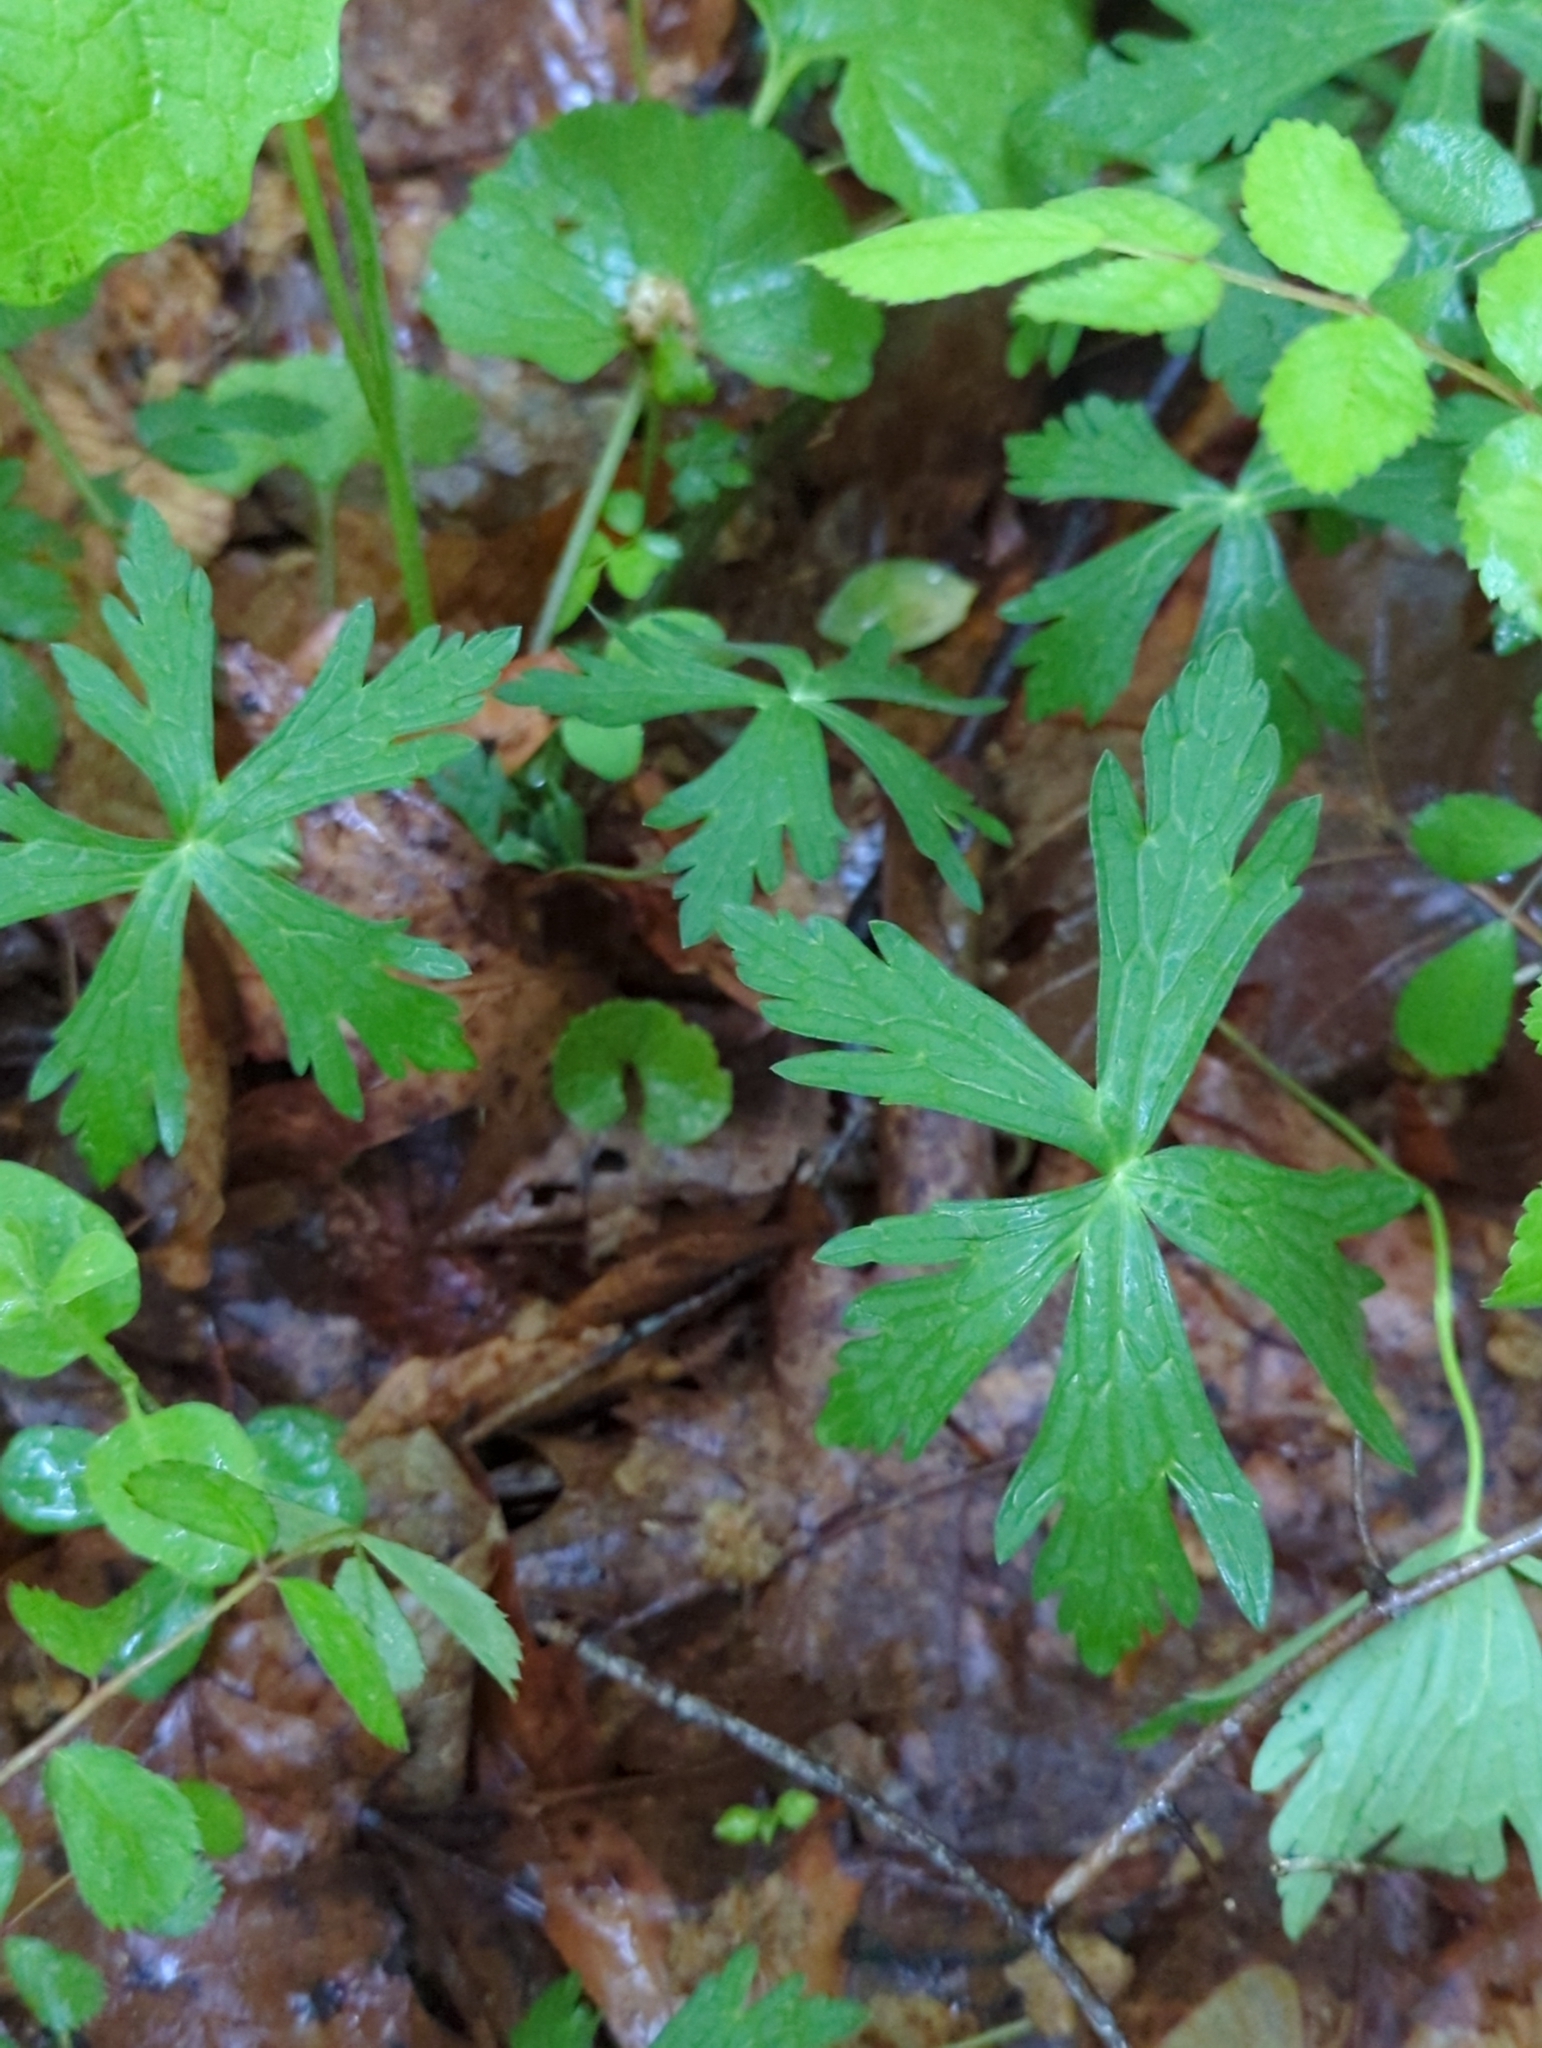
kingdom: Plantae
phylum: Tracheophyta
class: Magnoliopsida
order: Geraniales
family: Geraniaceae
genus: Geranium
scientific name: Geranium maculatum
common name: Spotted geranium
